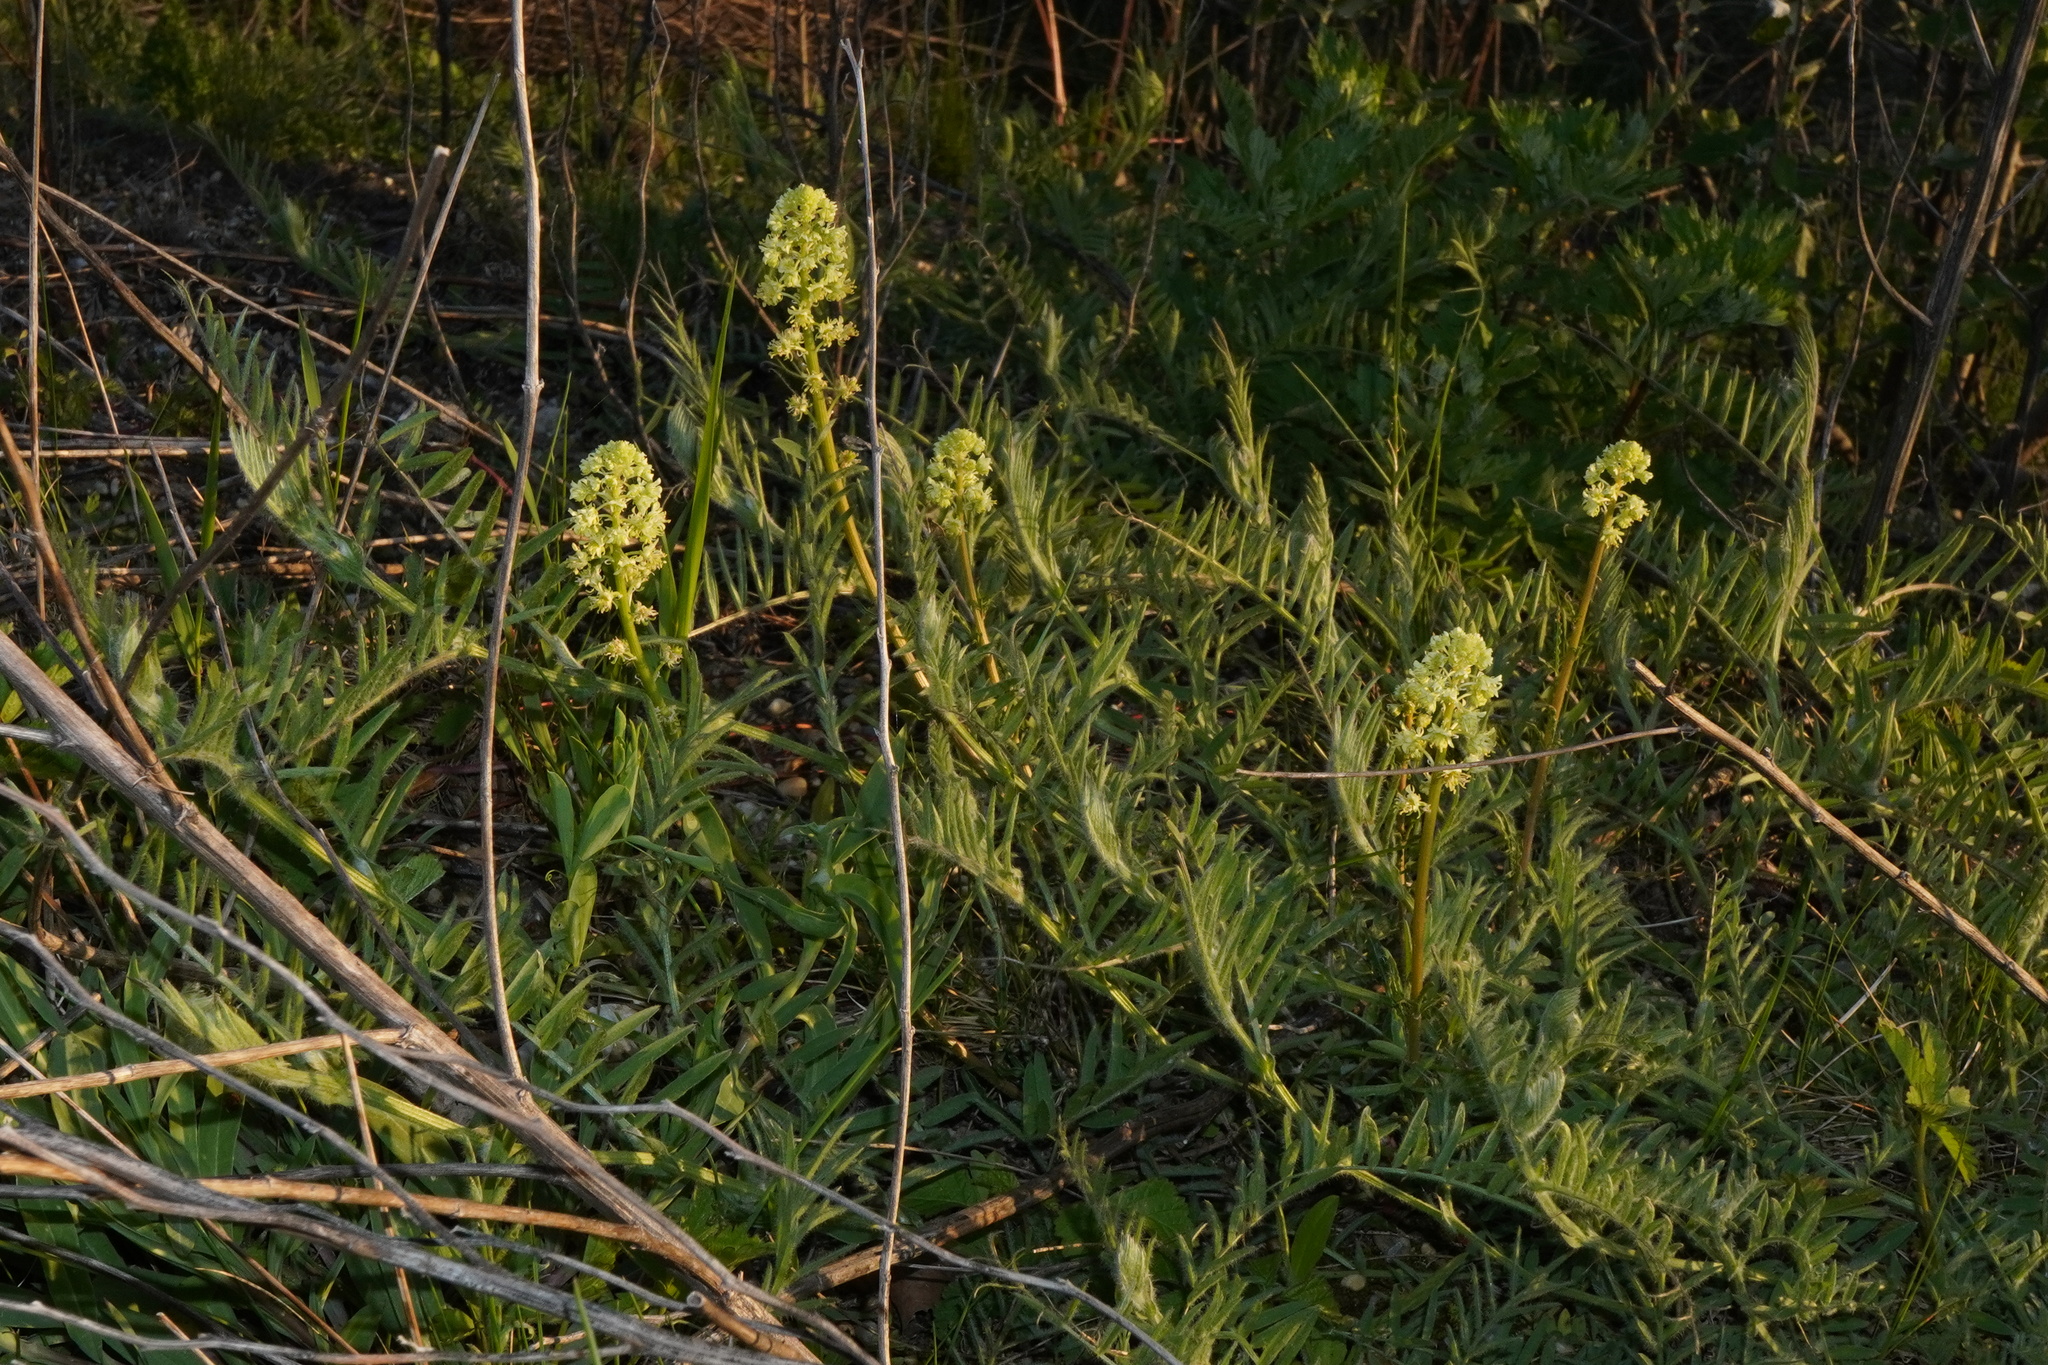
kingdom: Plantae
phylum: Tracheophyta
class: Magnoliopsida
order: Brassicales
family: Resedaceae
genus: Reseda
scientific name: Reseda lutea
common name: Wild mignonette
